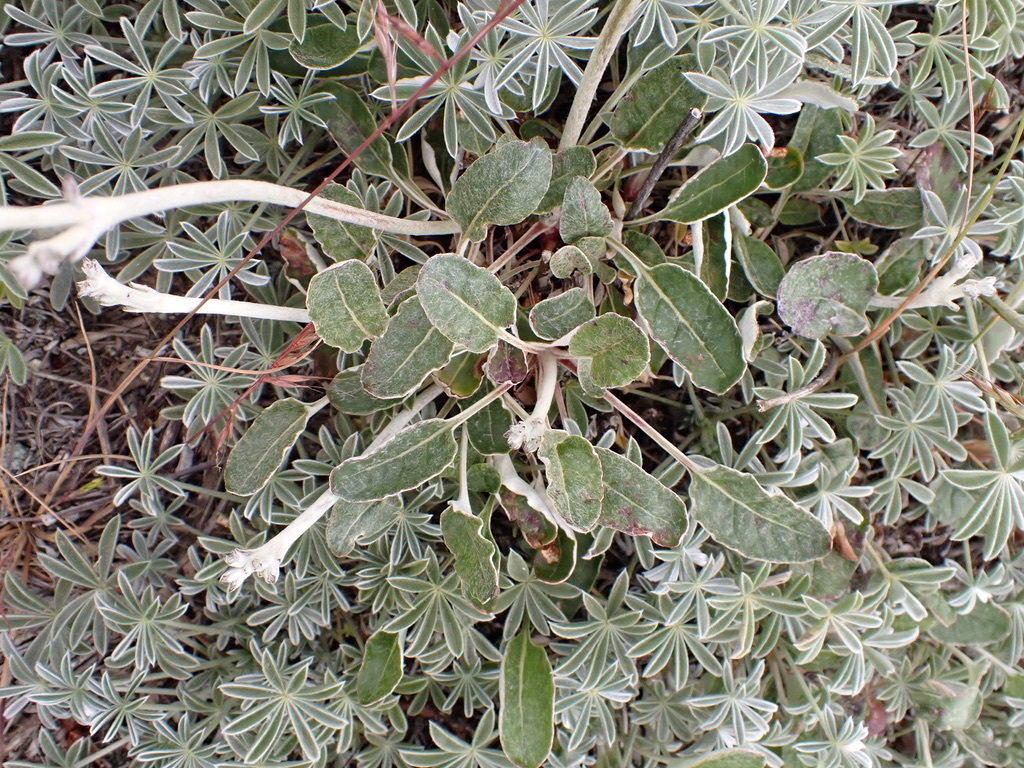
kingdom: Plantae
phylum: Tracheophyta
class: Magnoliopsida
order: Caryophyllales
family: Polygonaceae
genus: Eriogonum
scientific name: Eriogonum nudum
